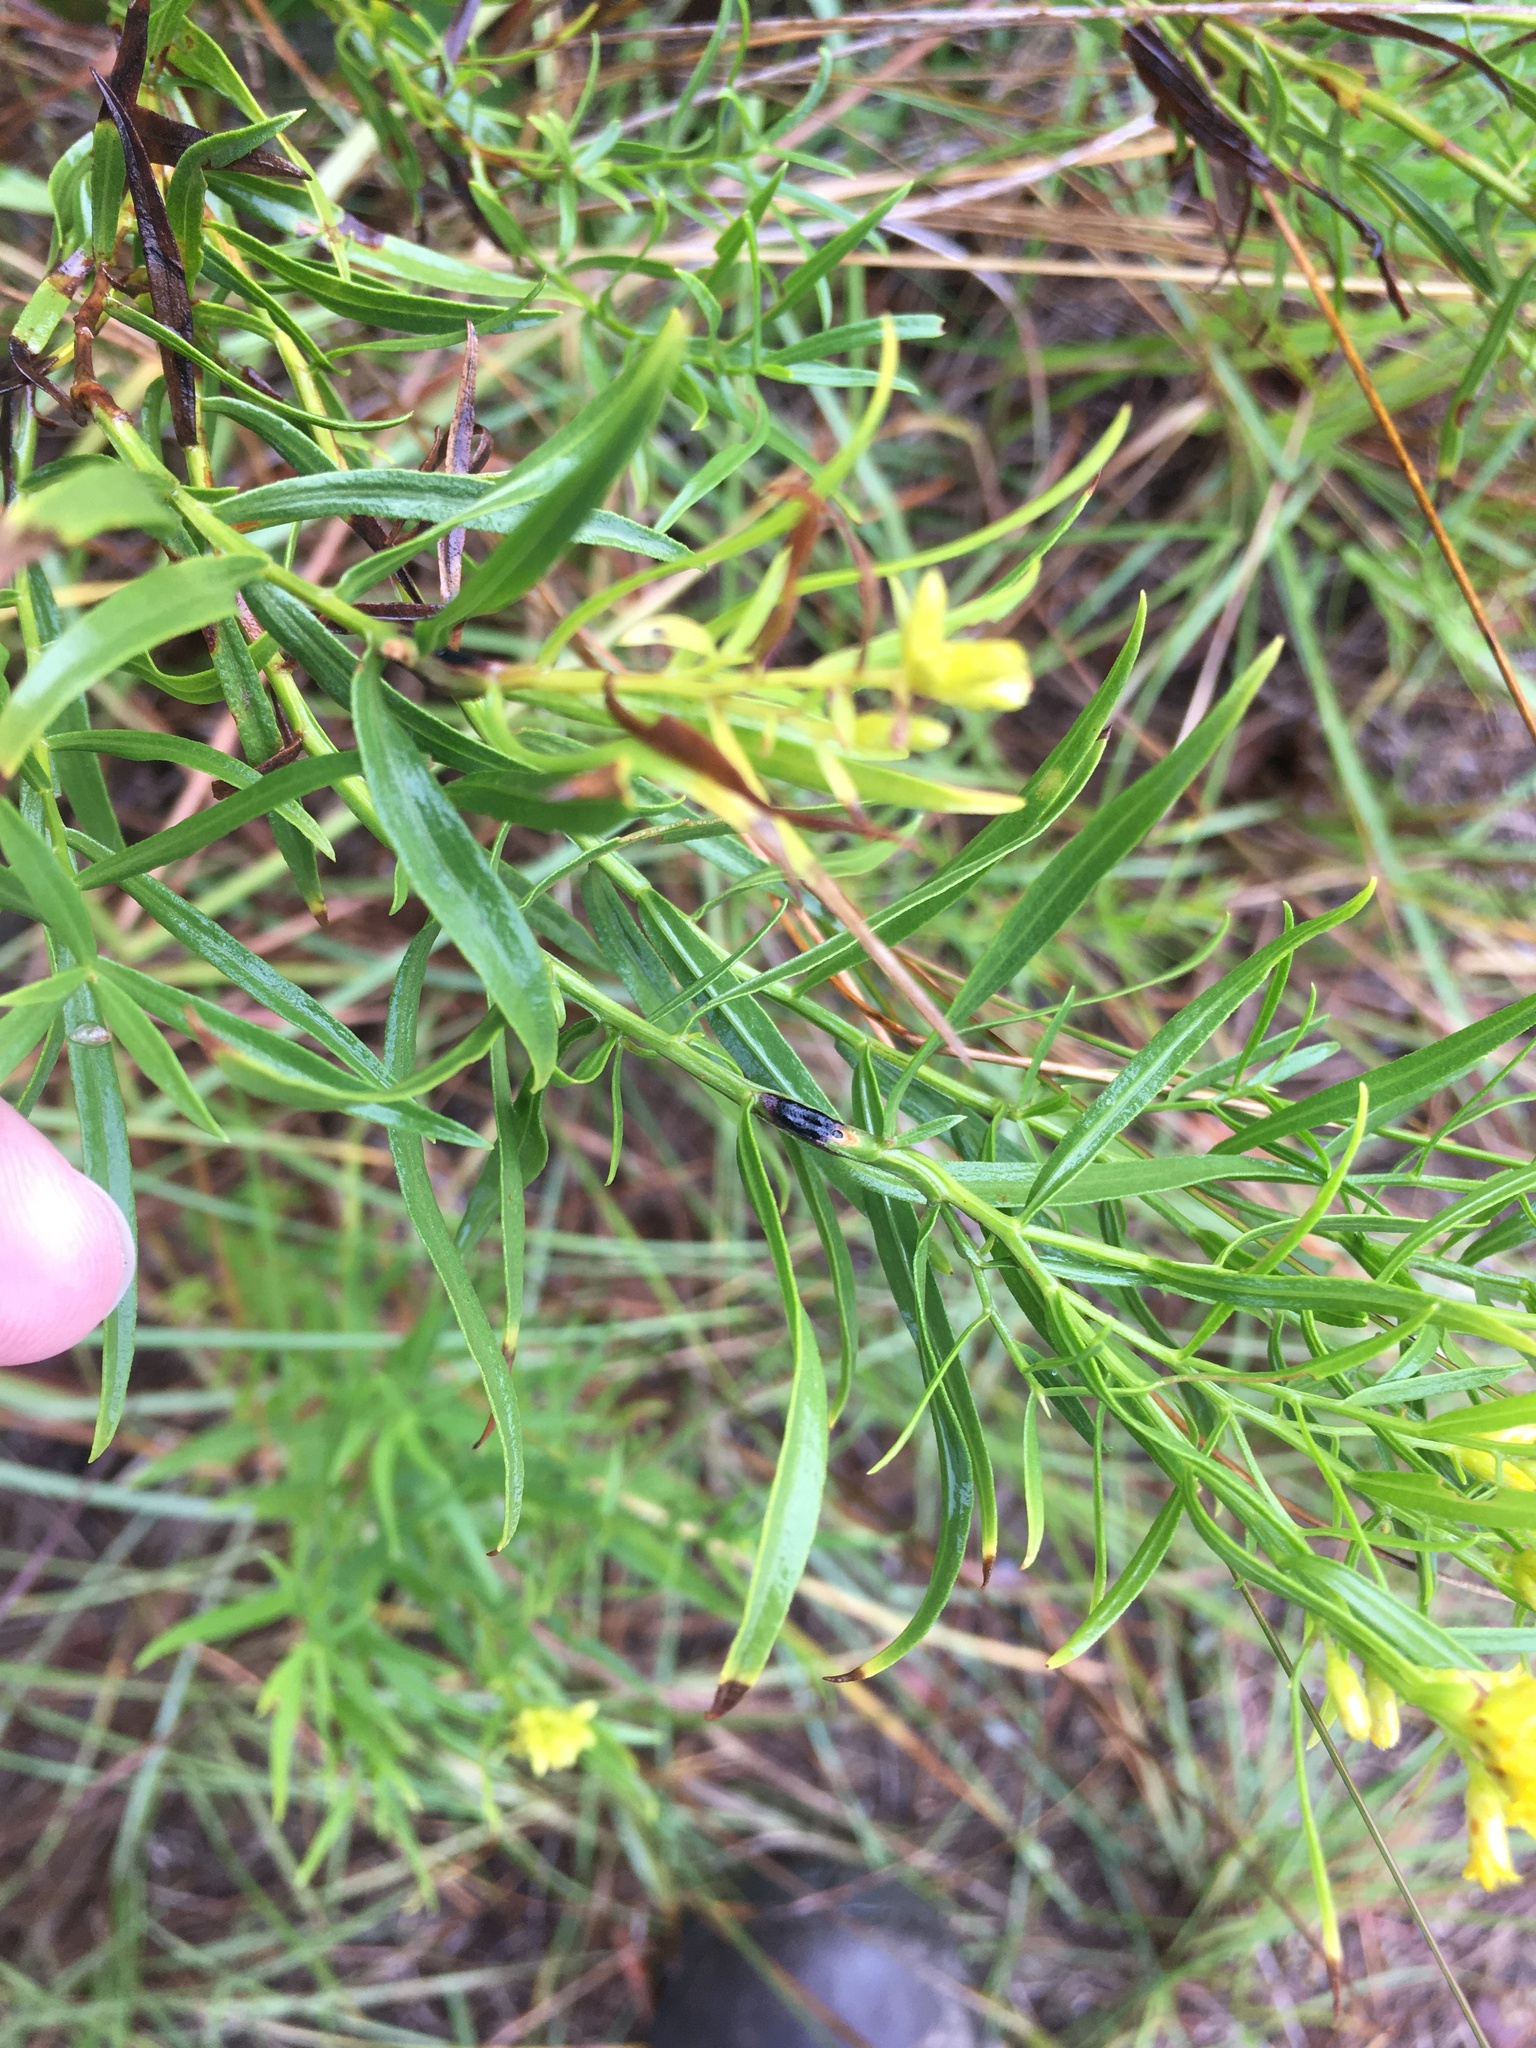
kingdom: Animalia
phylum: Arthropoda
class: Insecta
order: Diptera
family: Cecidomyiidae
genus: Asteromyia
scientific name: Asteromyia euthamiae
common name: Euthamia leaf gall midge
